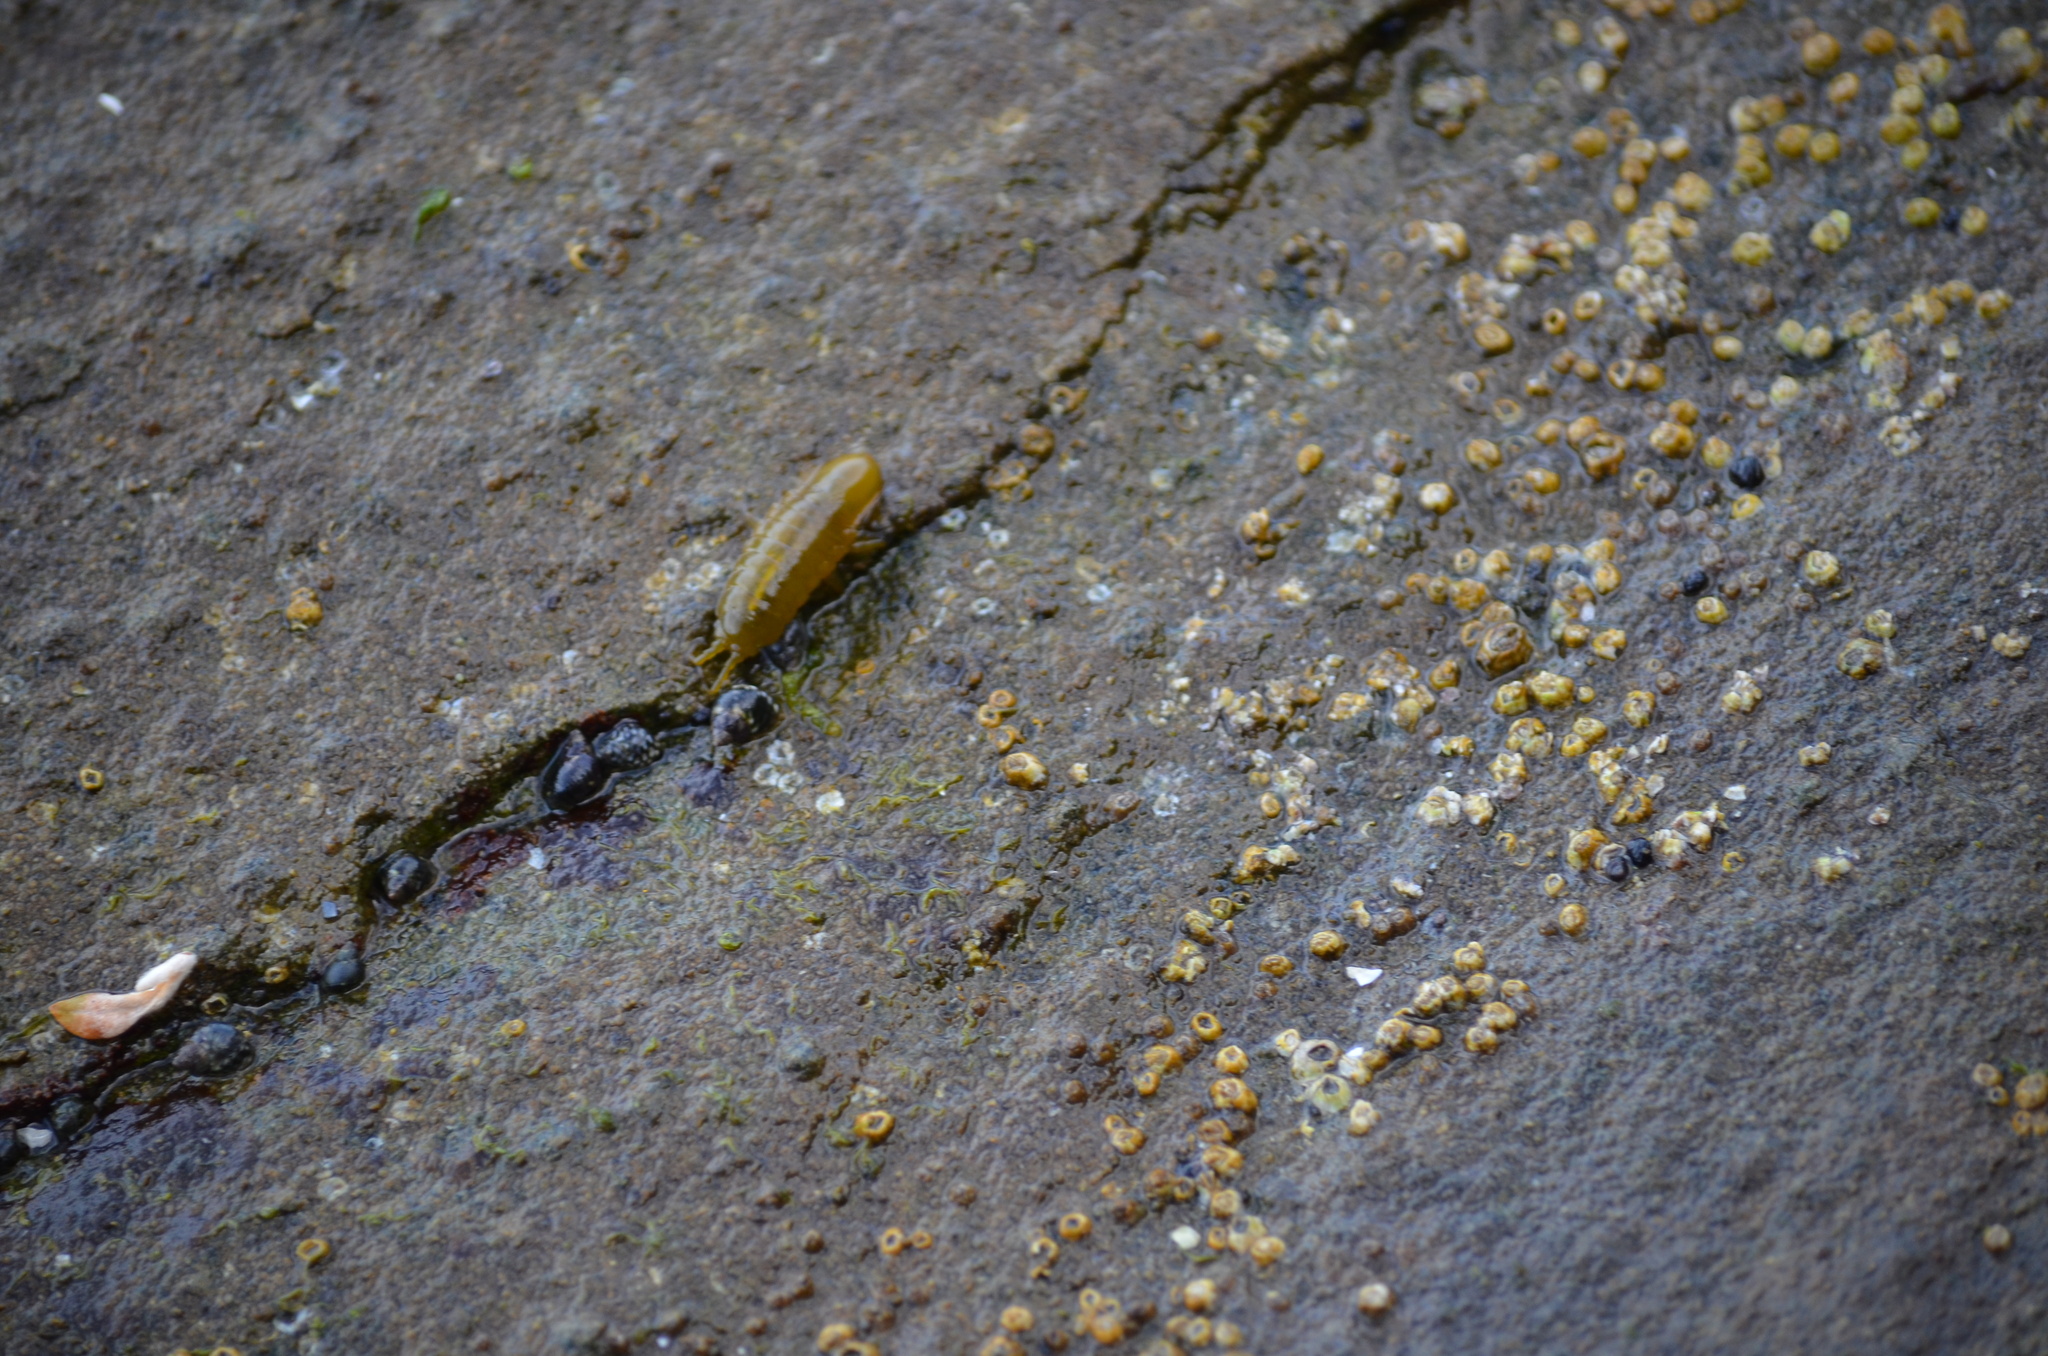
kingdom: Animalia
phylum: Arthropoda
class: Malacostraca
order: Isopoda
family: Idoteidae
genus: Pentidotea
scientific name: Pentidotea wosnesenskii
